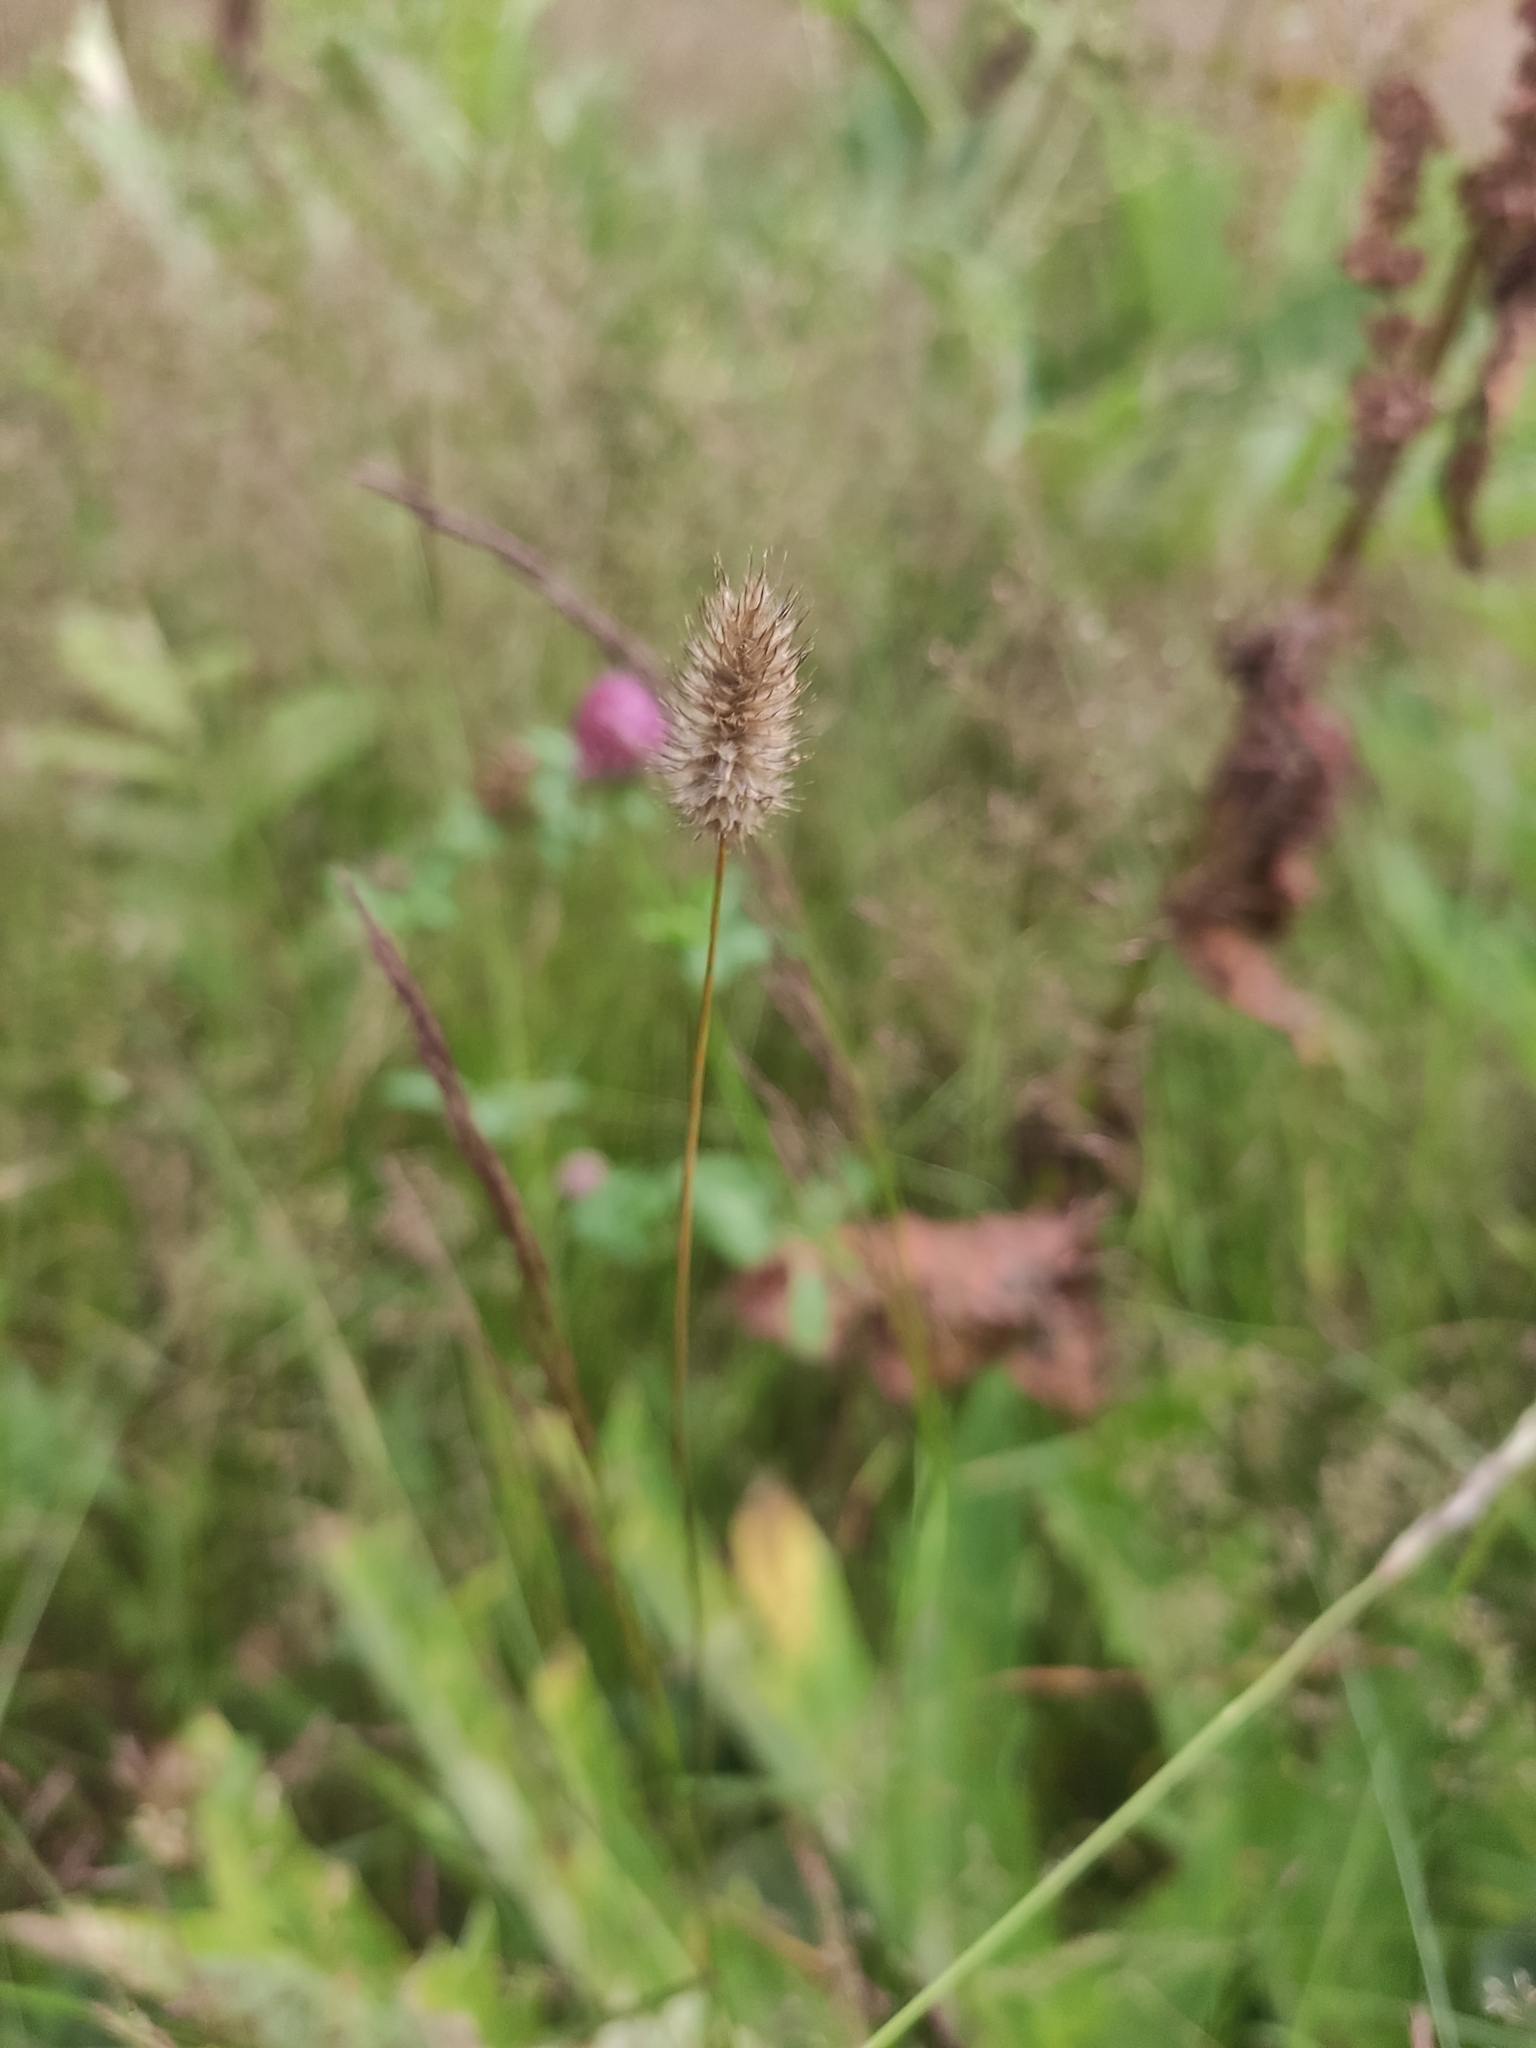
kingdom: Plantae
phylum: Tracheophyta
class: Liliopsida
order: Poales
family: Poaceae
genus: Phleum
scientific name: Phleum alpinum
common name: Alpine cat's-tail
